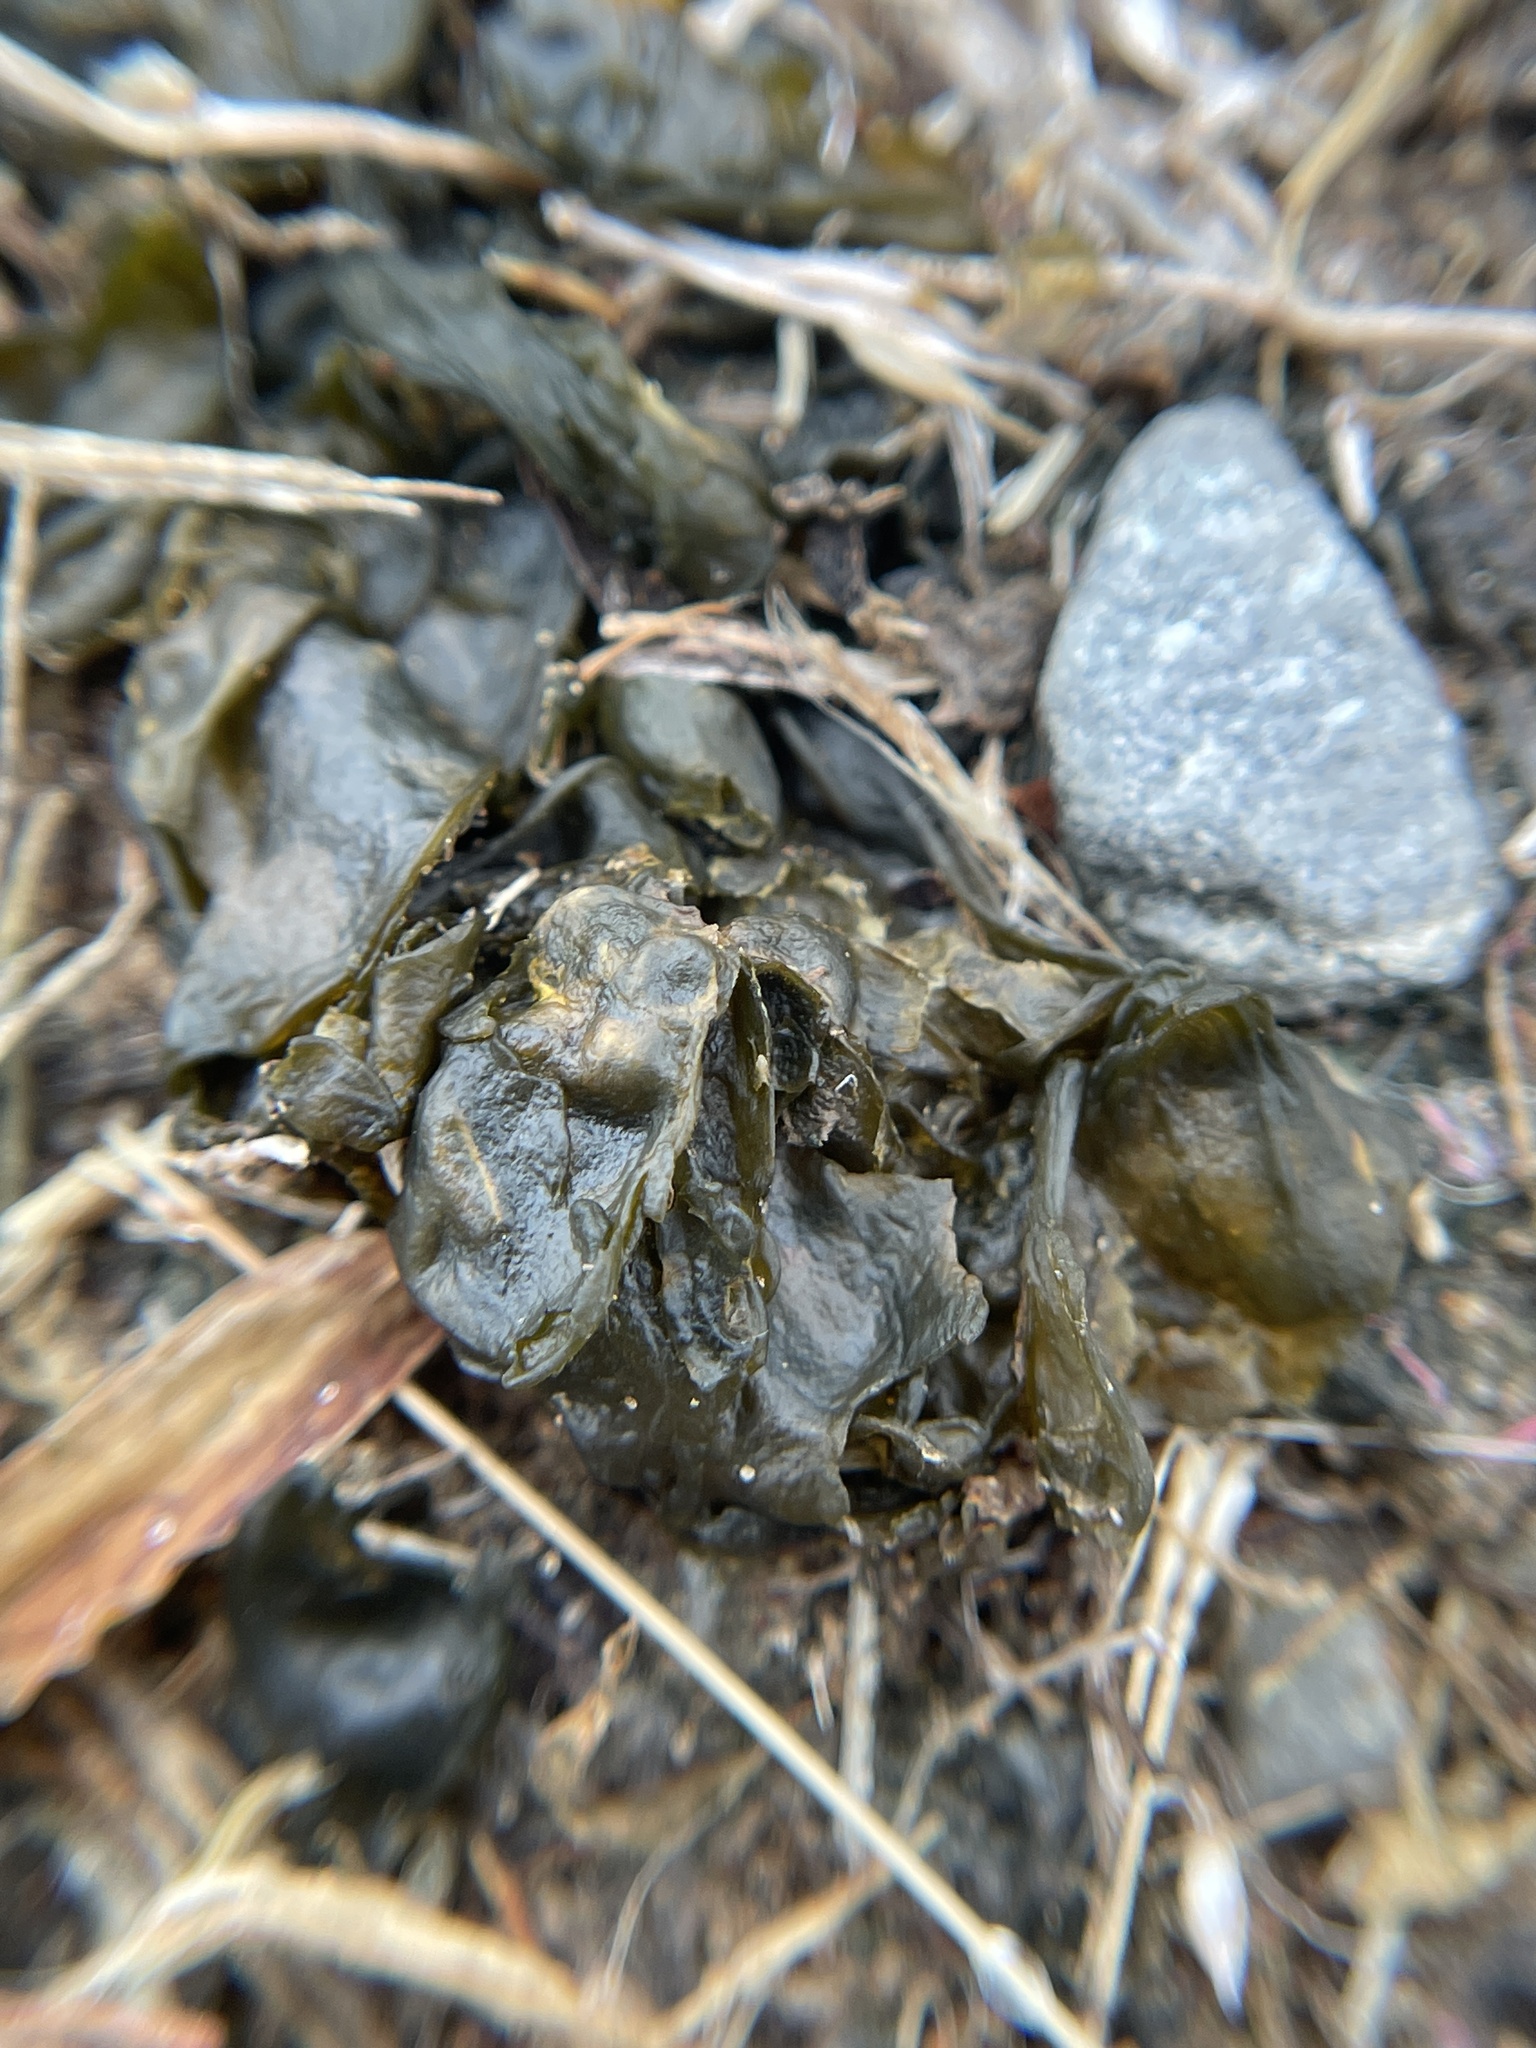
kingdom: Bacteria
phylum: Cyanobacteria
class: Cyanobacteriia
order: Cyanobacteriales
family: Nostocaceae
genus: Nostoc
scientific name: Nostoc commune
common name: Star jelly
